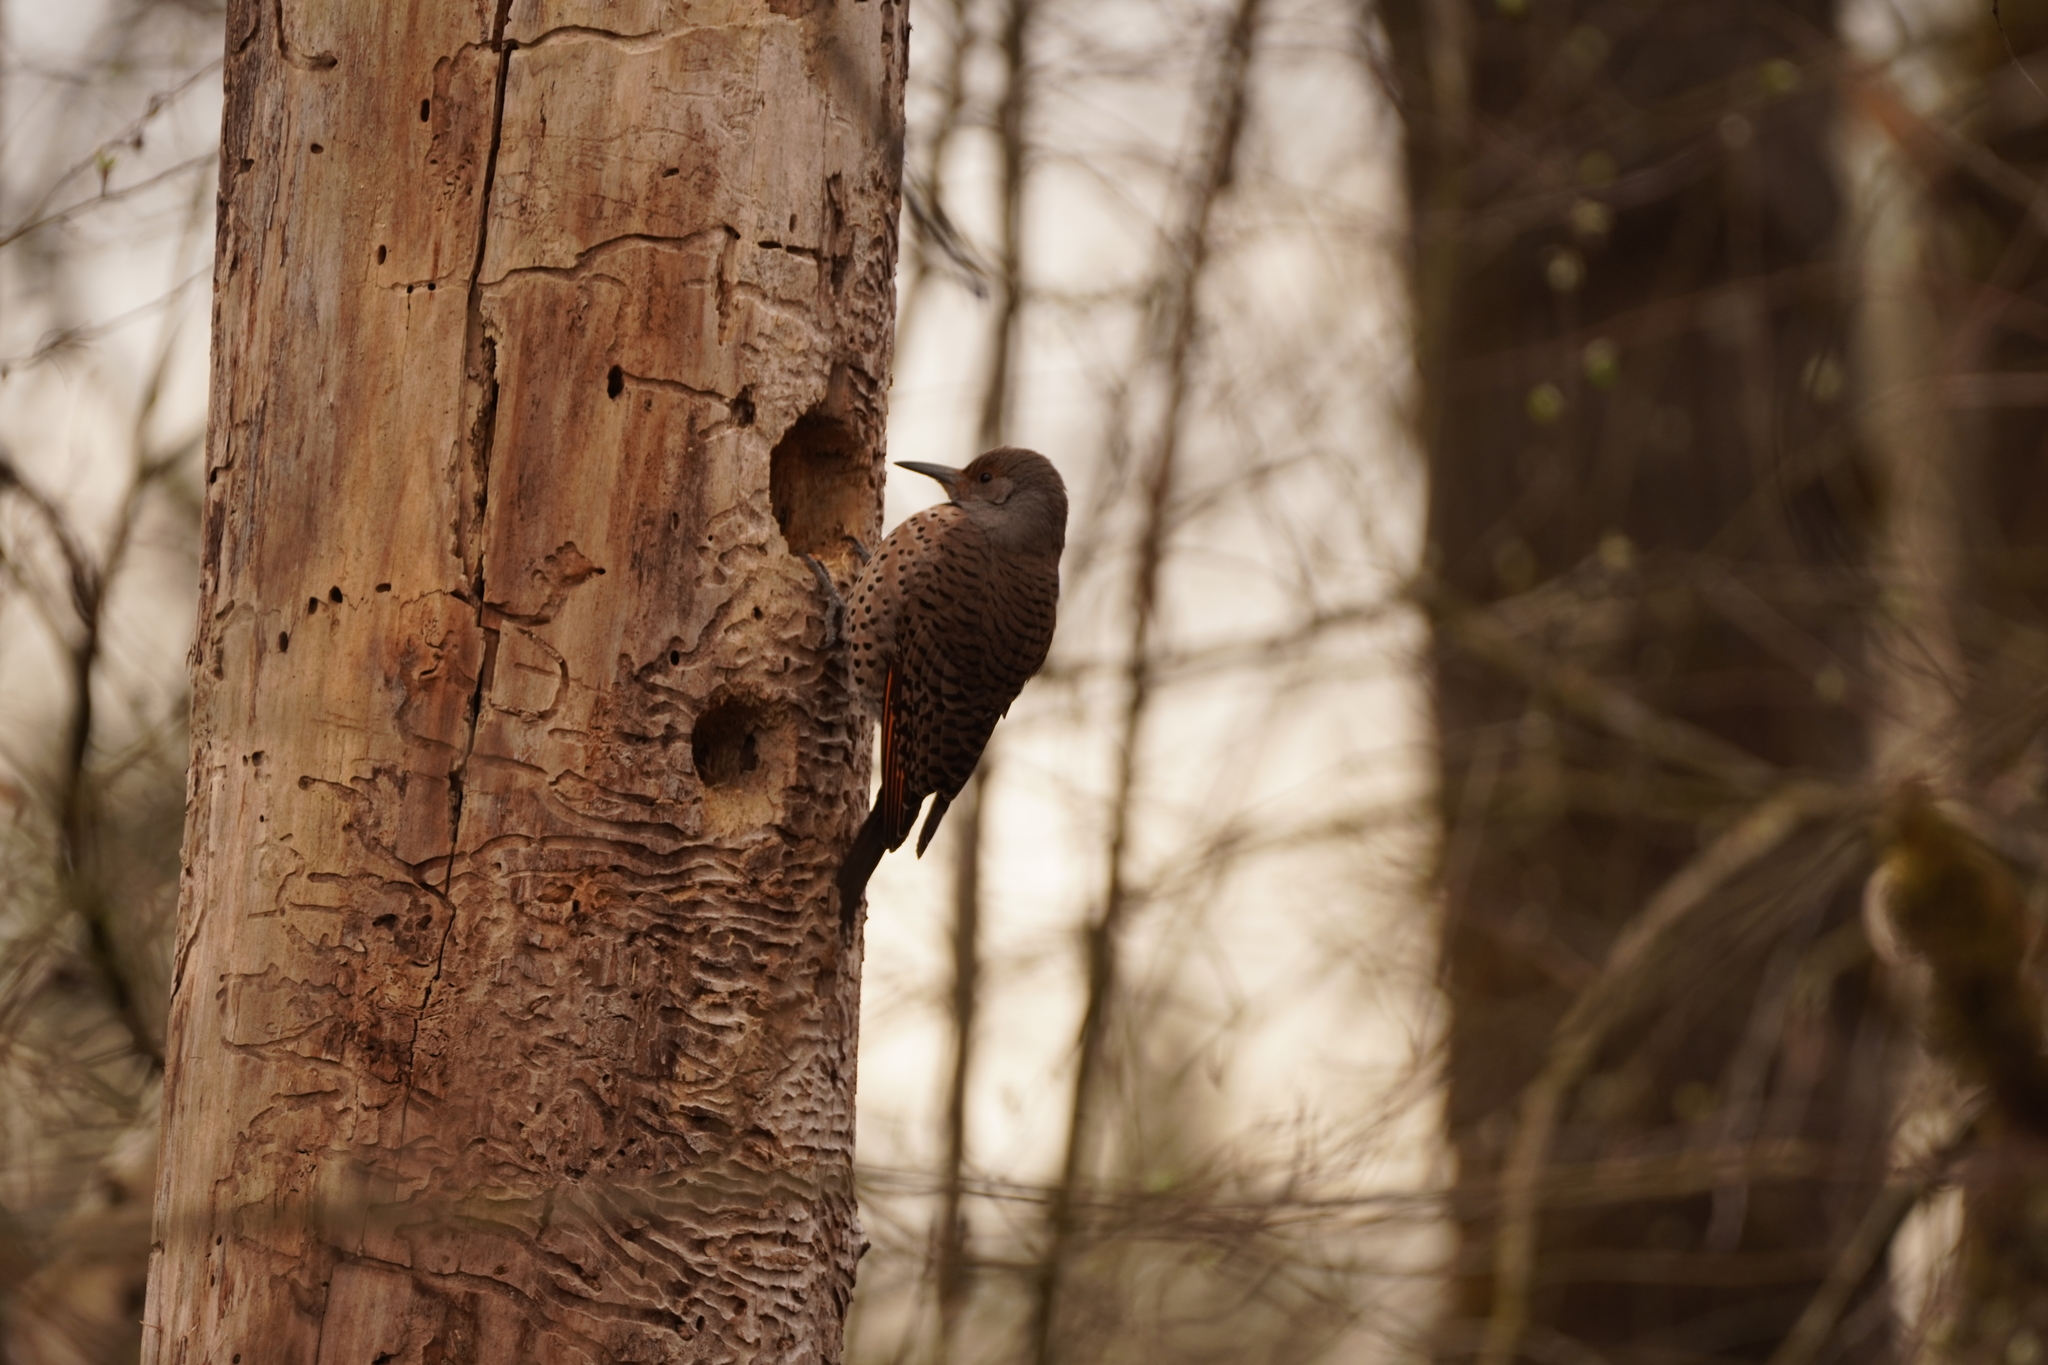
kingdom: Animalia
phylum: Chordata
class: Aves
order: Piciformes
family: Picidae
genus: Colaptes
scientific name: Colaptes auratus
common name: Northern flicker
